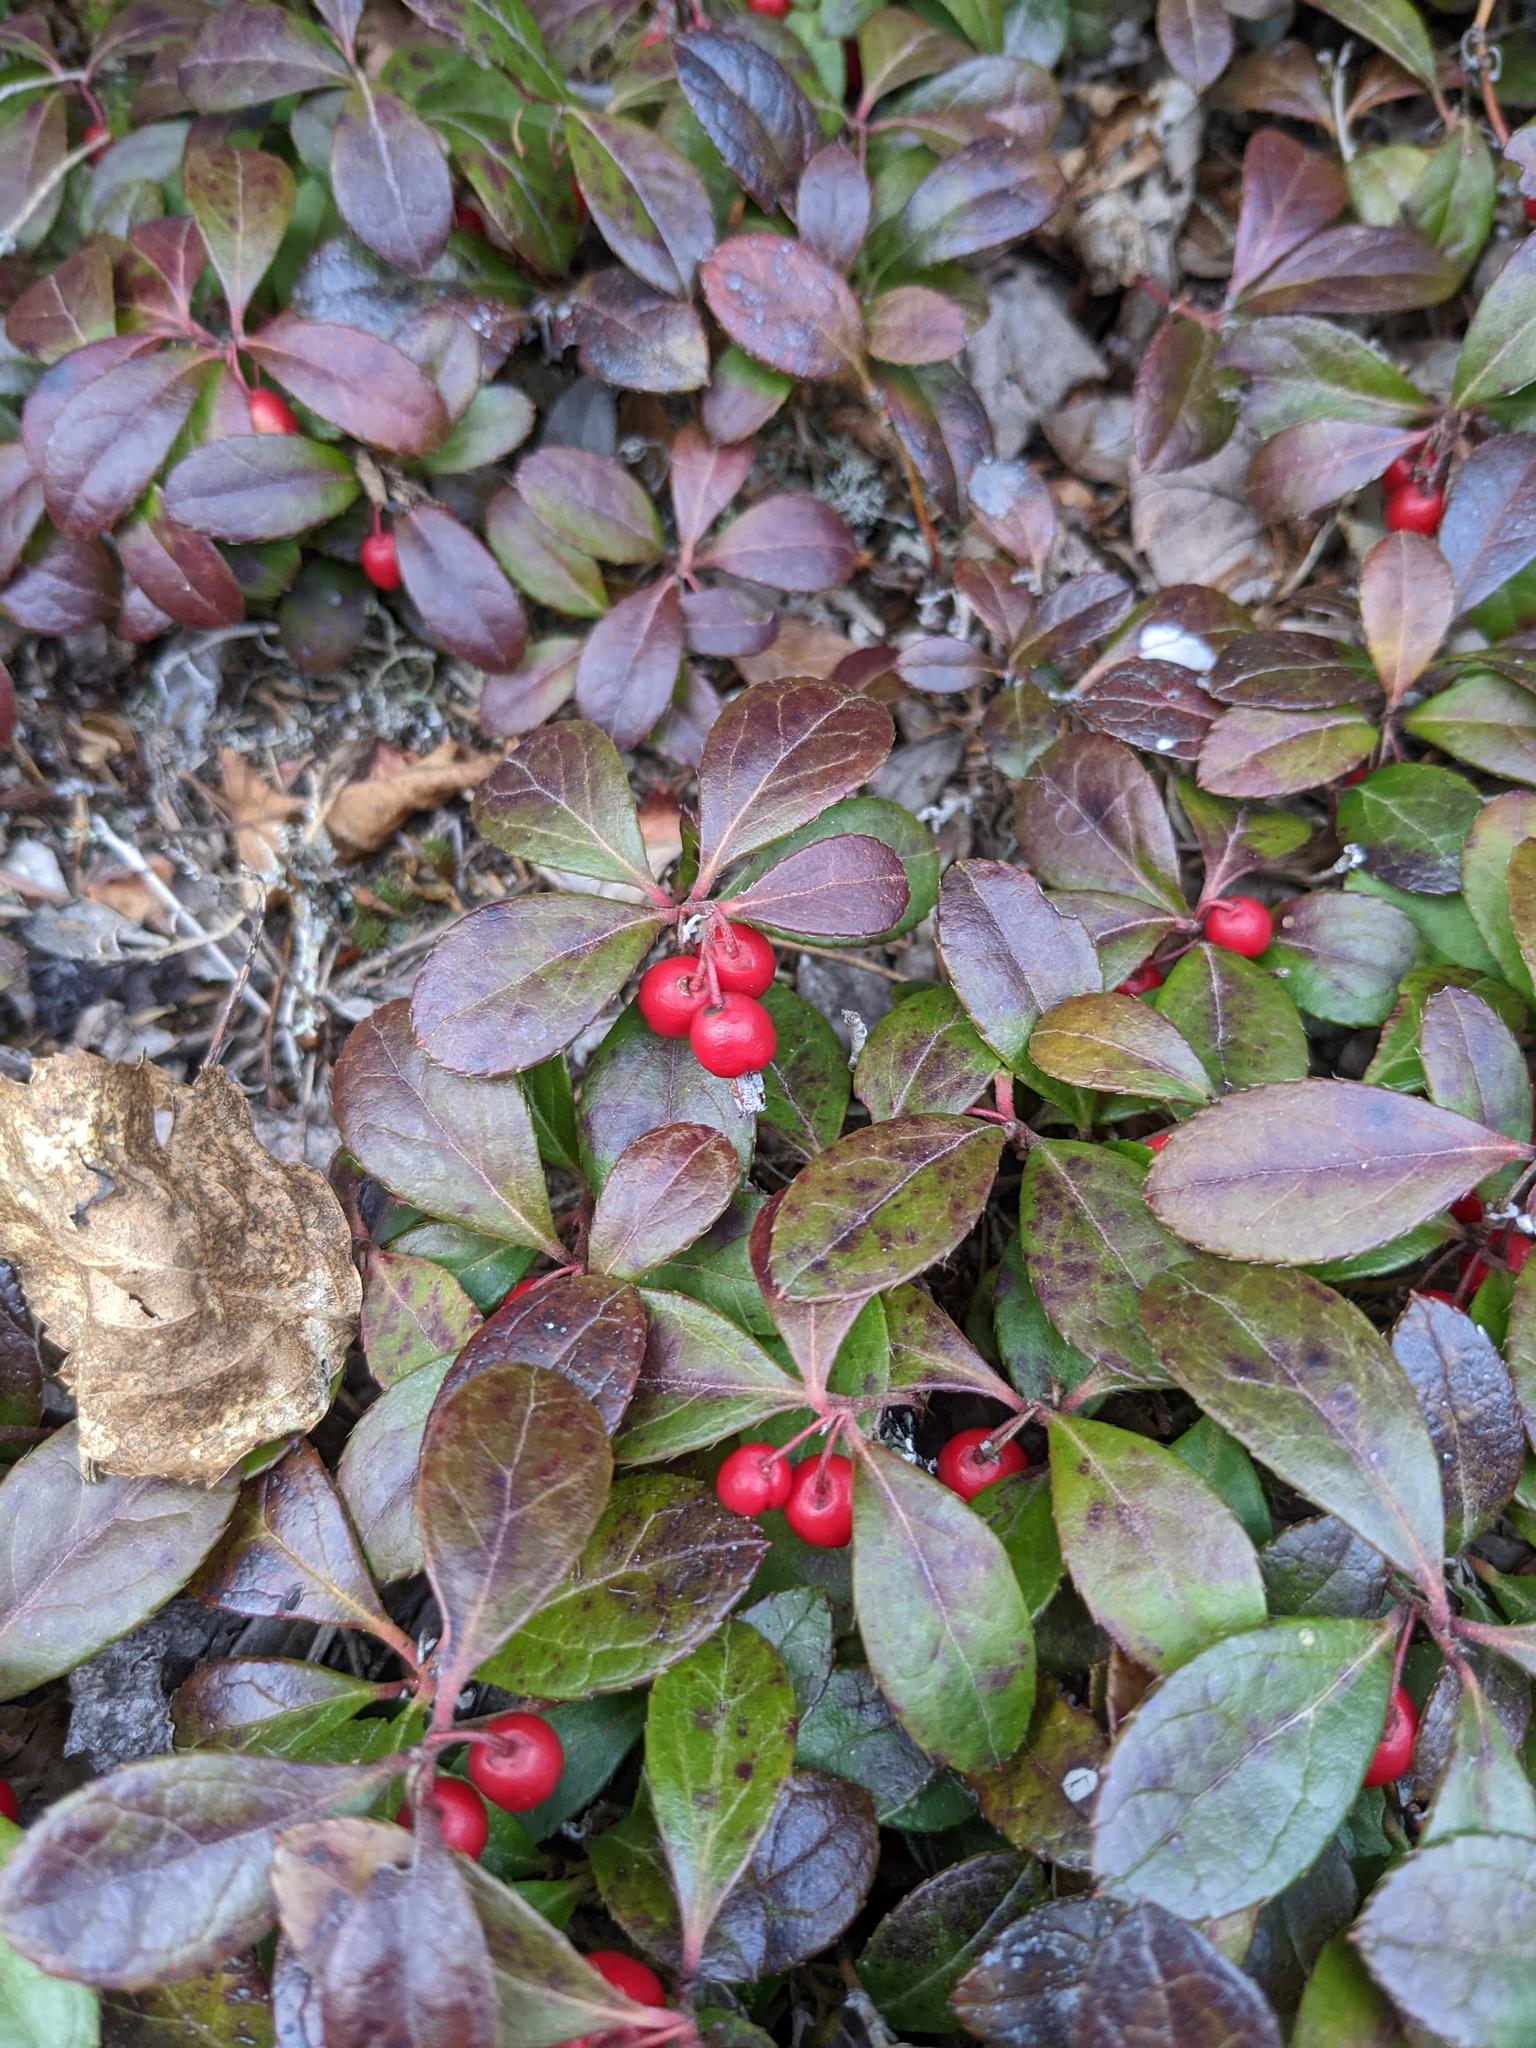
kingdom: Plantae
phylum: Tracheophyta
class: Magnoliopsida
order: Ericales
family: Ericaceae
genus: Gaultheria
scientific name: Gaultheria procumbens
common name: Checkerberry
